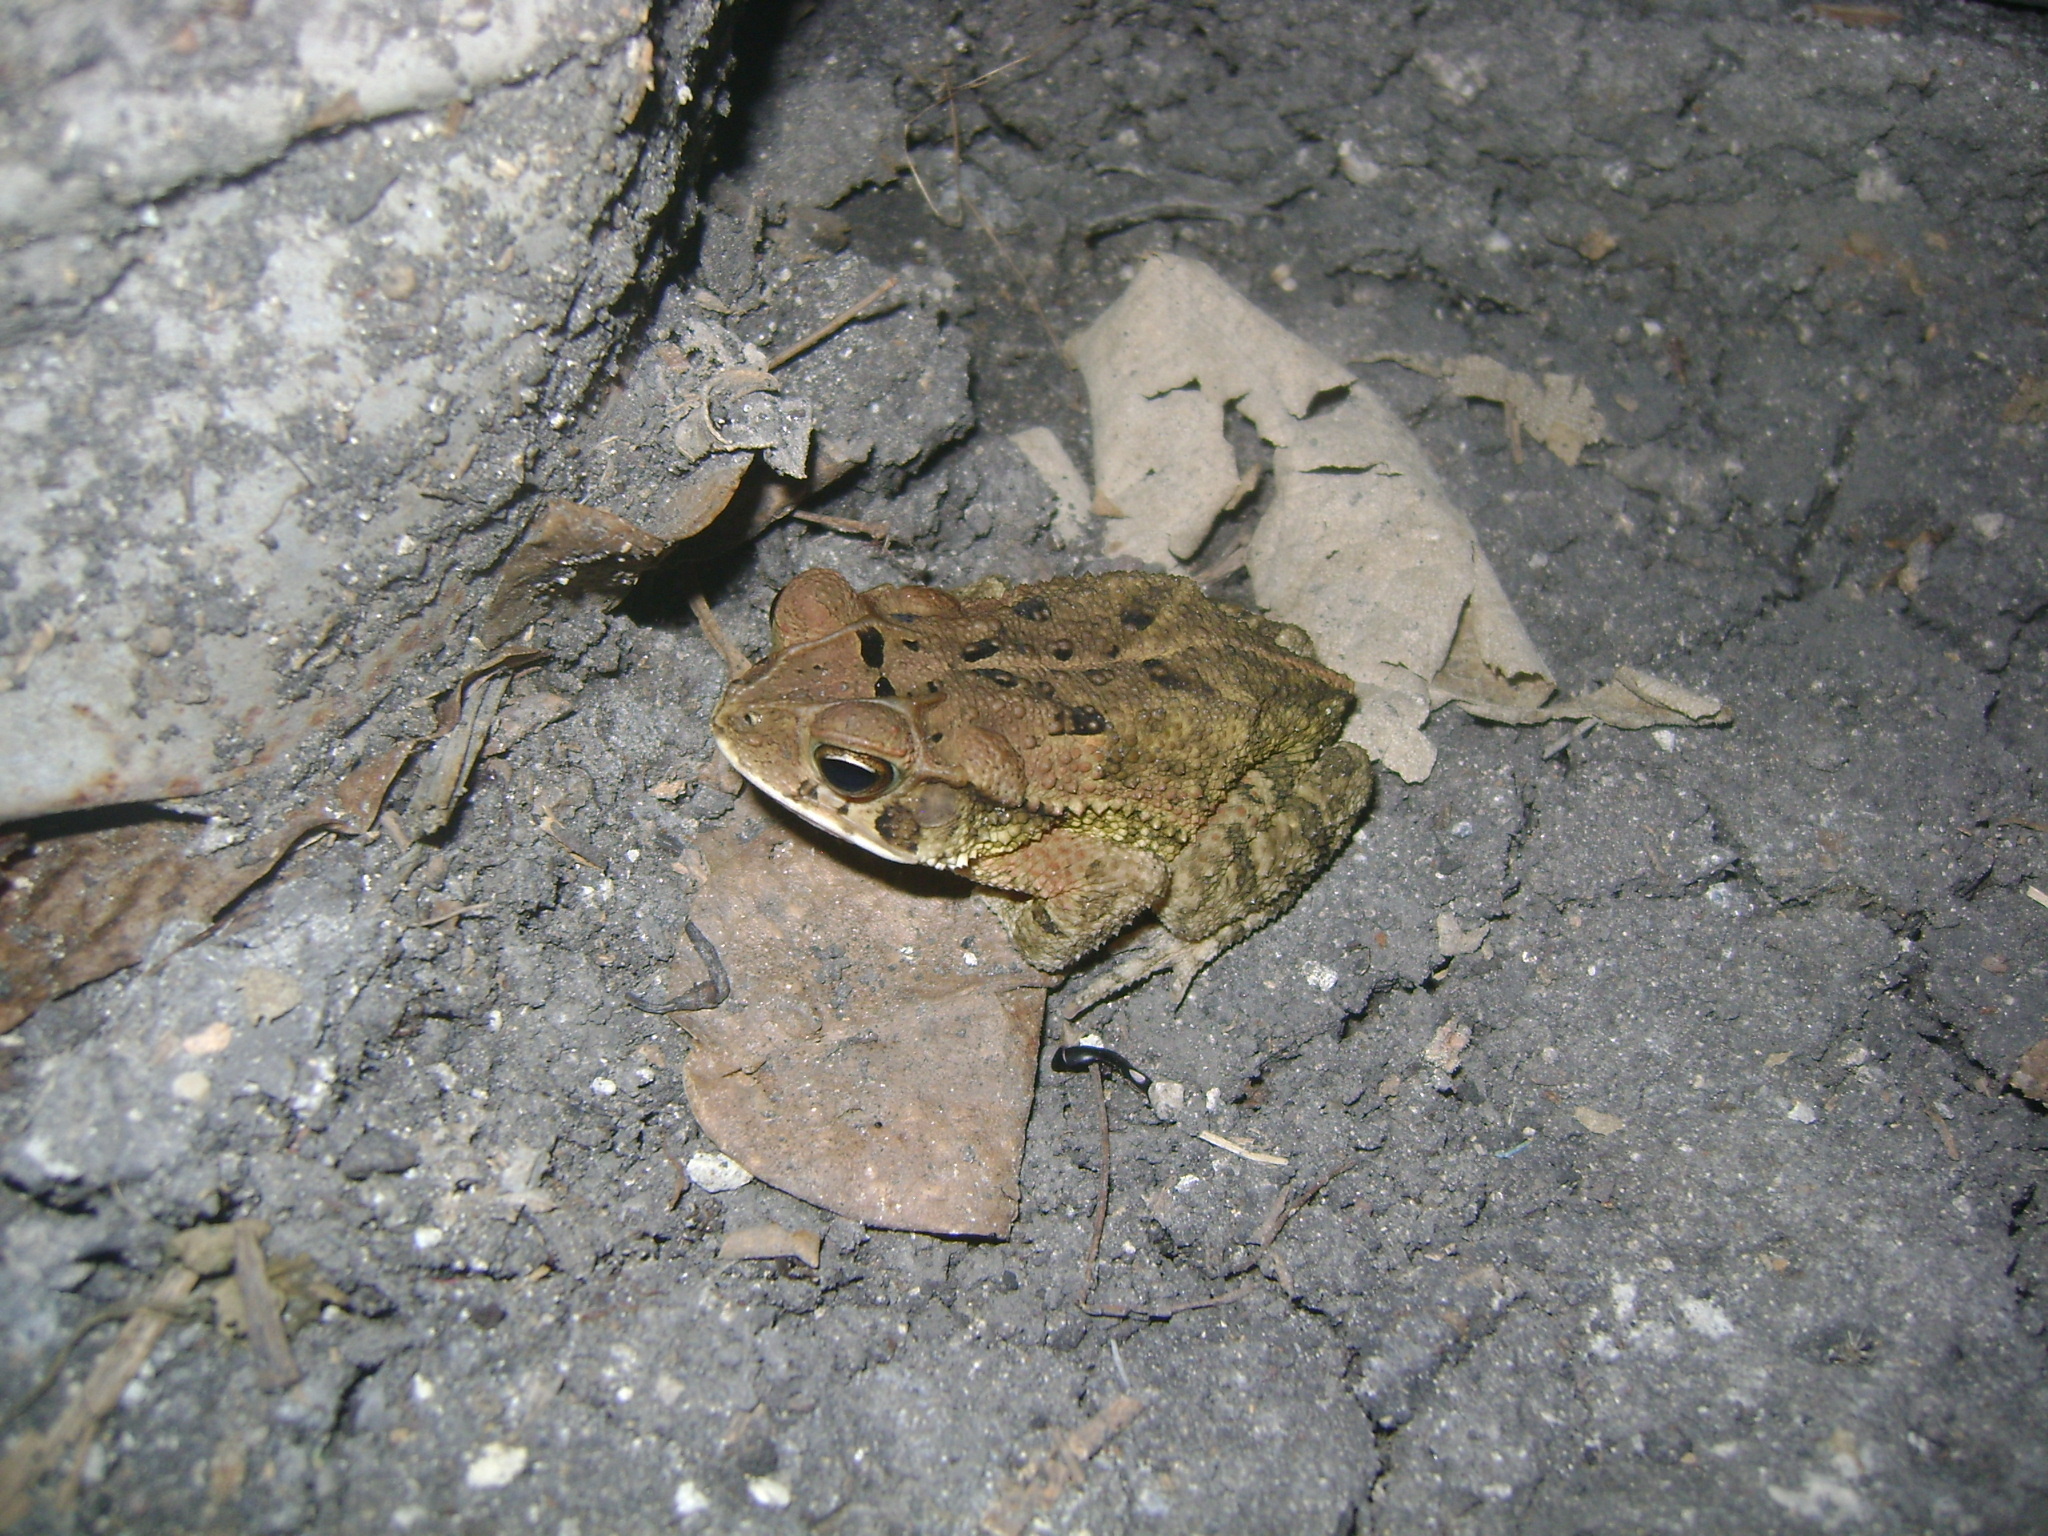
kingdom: Animalia
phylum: Chordata
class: Amphibia
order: Anura
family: Bufonidae
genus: Incilius
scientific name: Incilius valliceps
